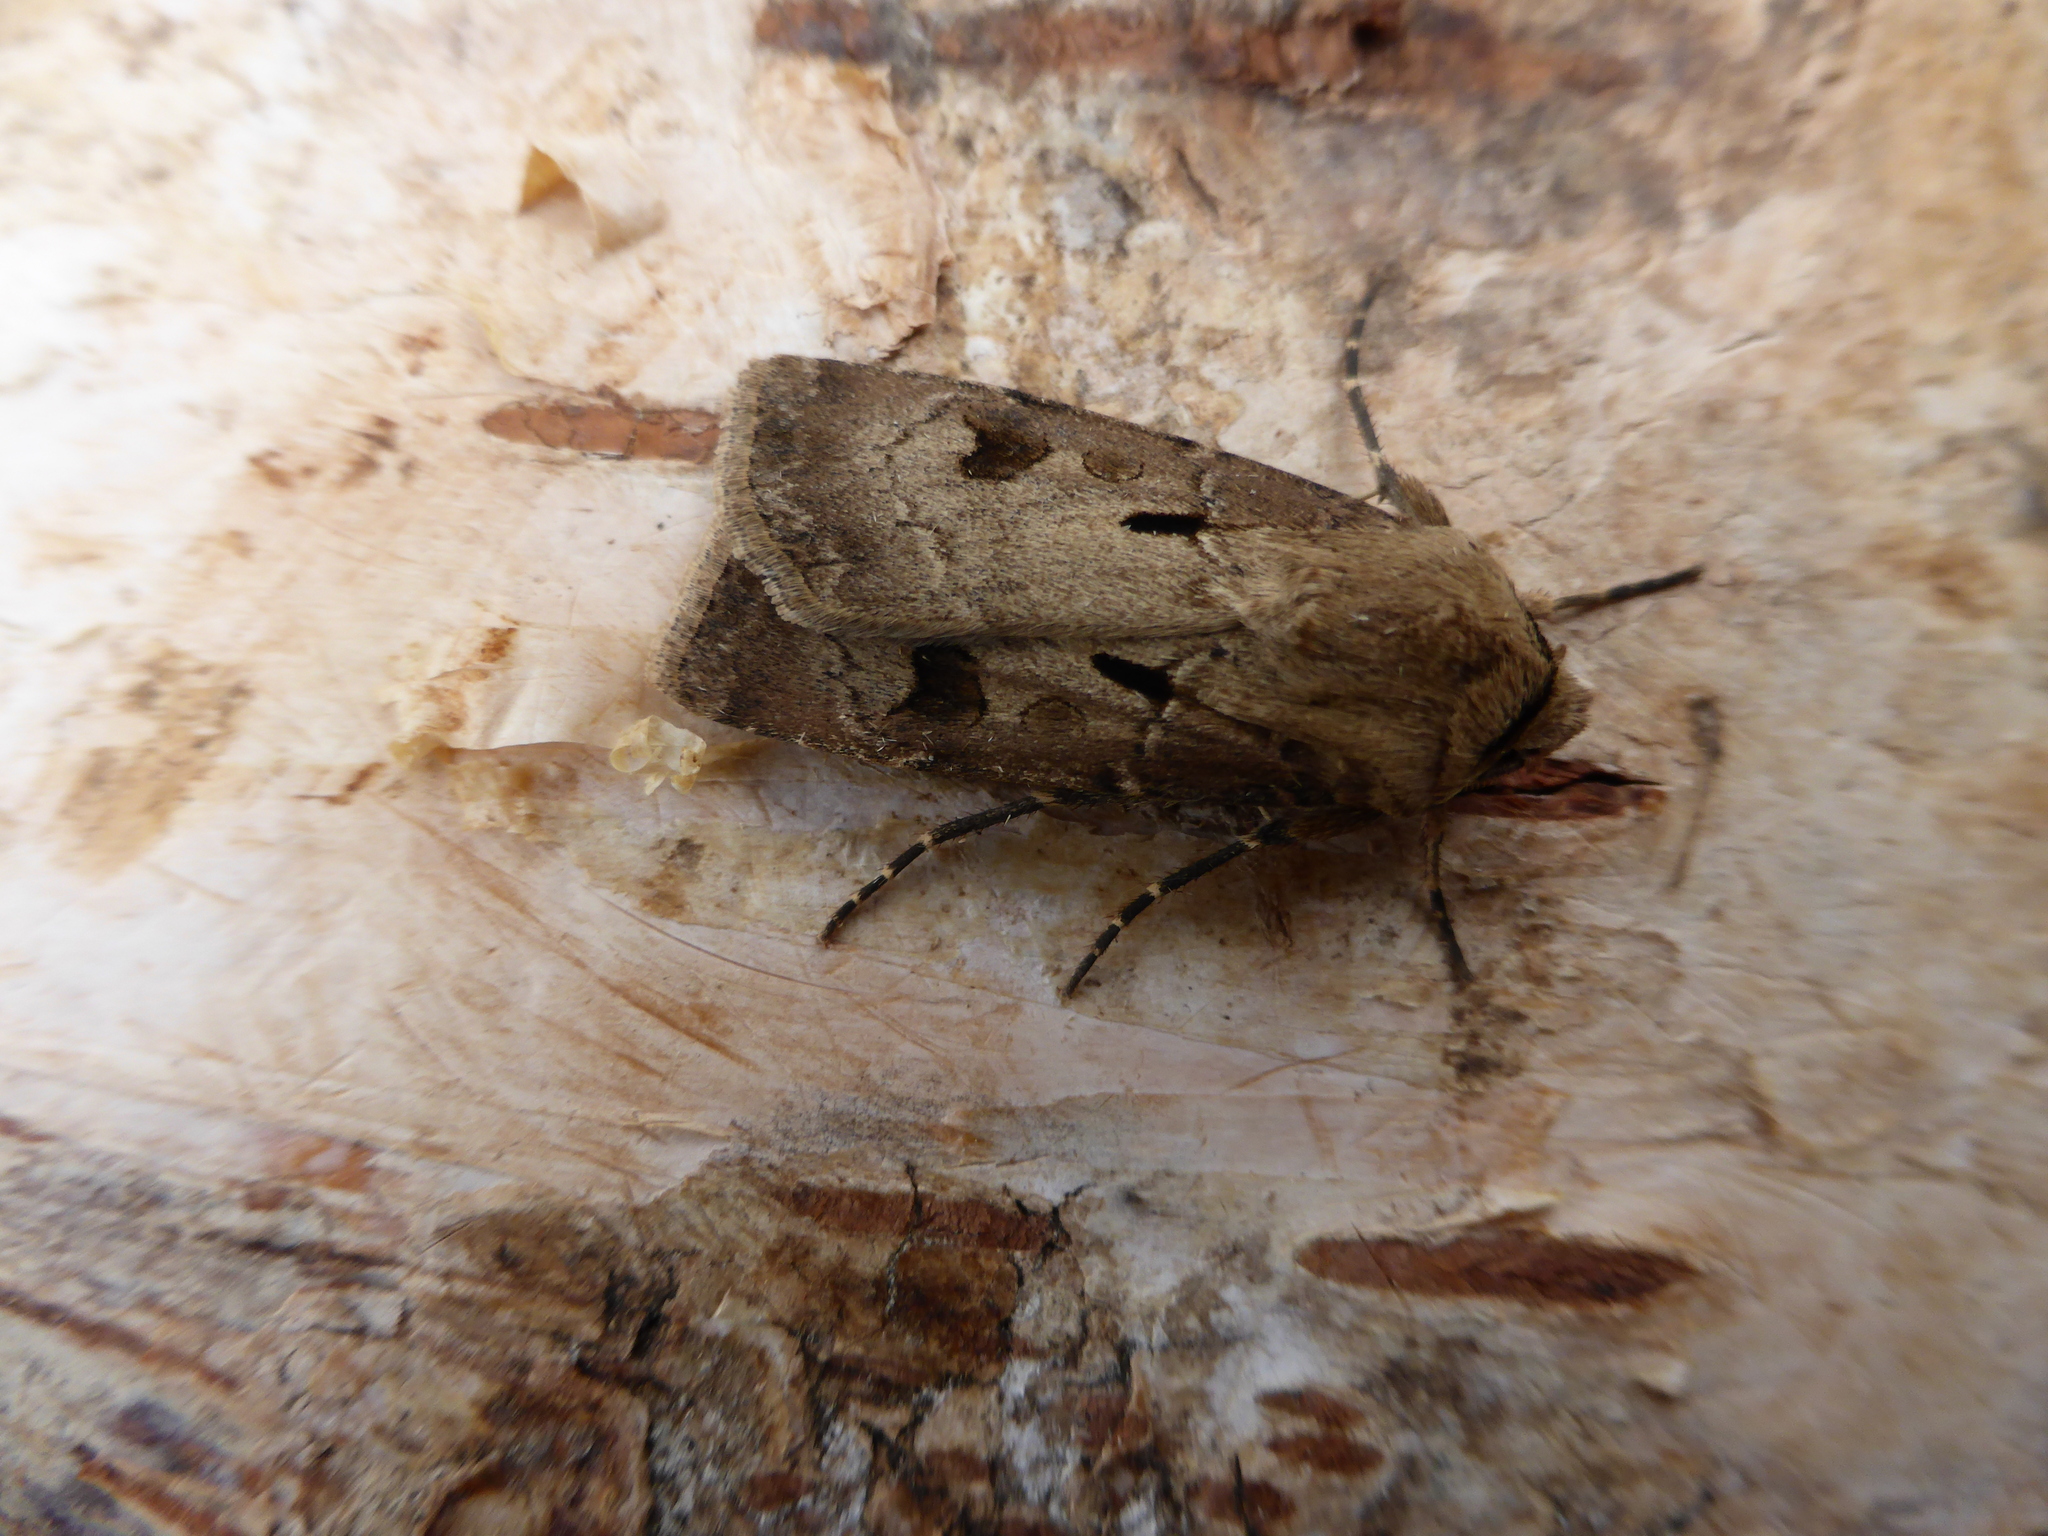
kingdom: Animalia
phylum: Arthropoda
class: Insecta
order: Lepidoptera
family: Noctuidae
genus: Agrotis
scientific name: Agrotis exclamationis
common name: Heart and dart
